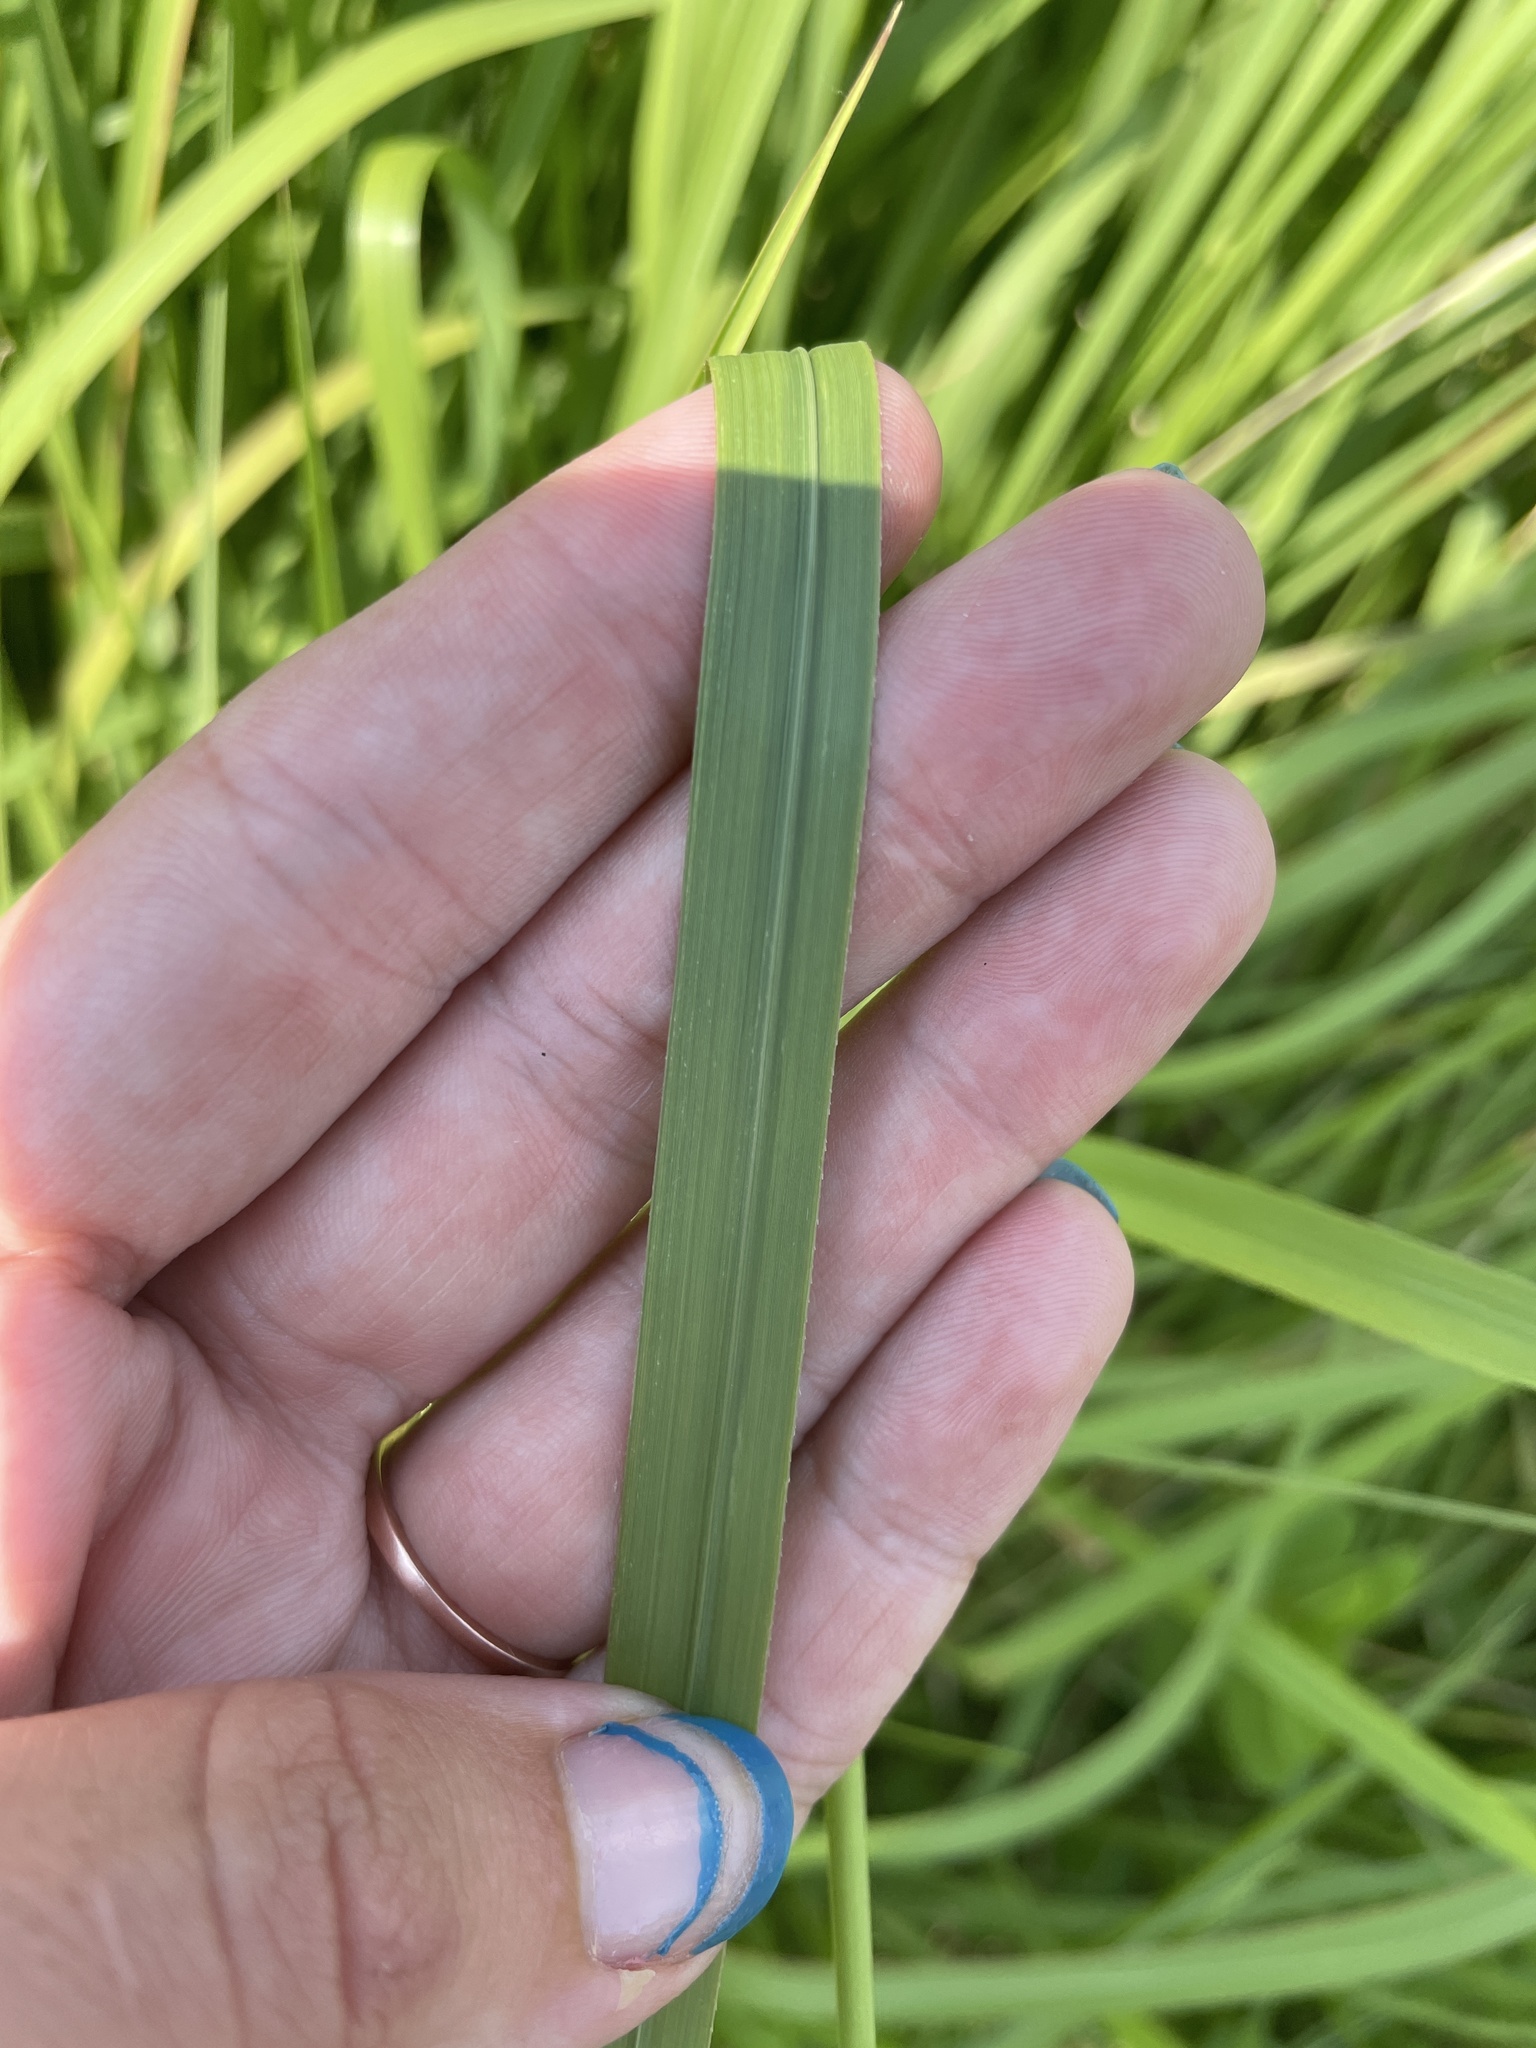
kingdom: Plantae
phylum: Tracheophyta
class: Liliopsida
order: Poales
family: Poaceae
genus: Imperata
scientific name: Imperata cylindrica
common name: Cogongrass
